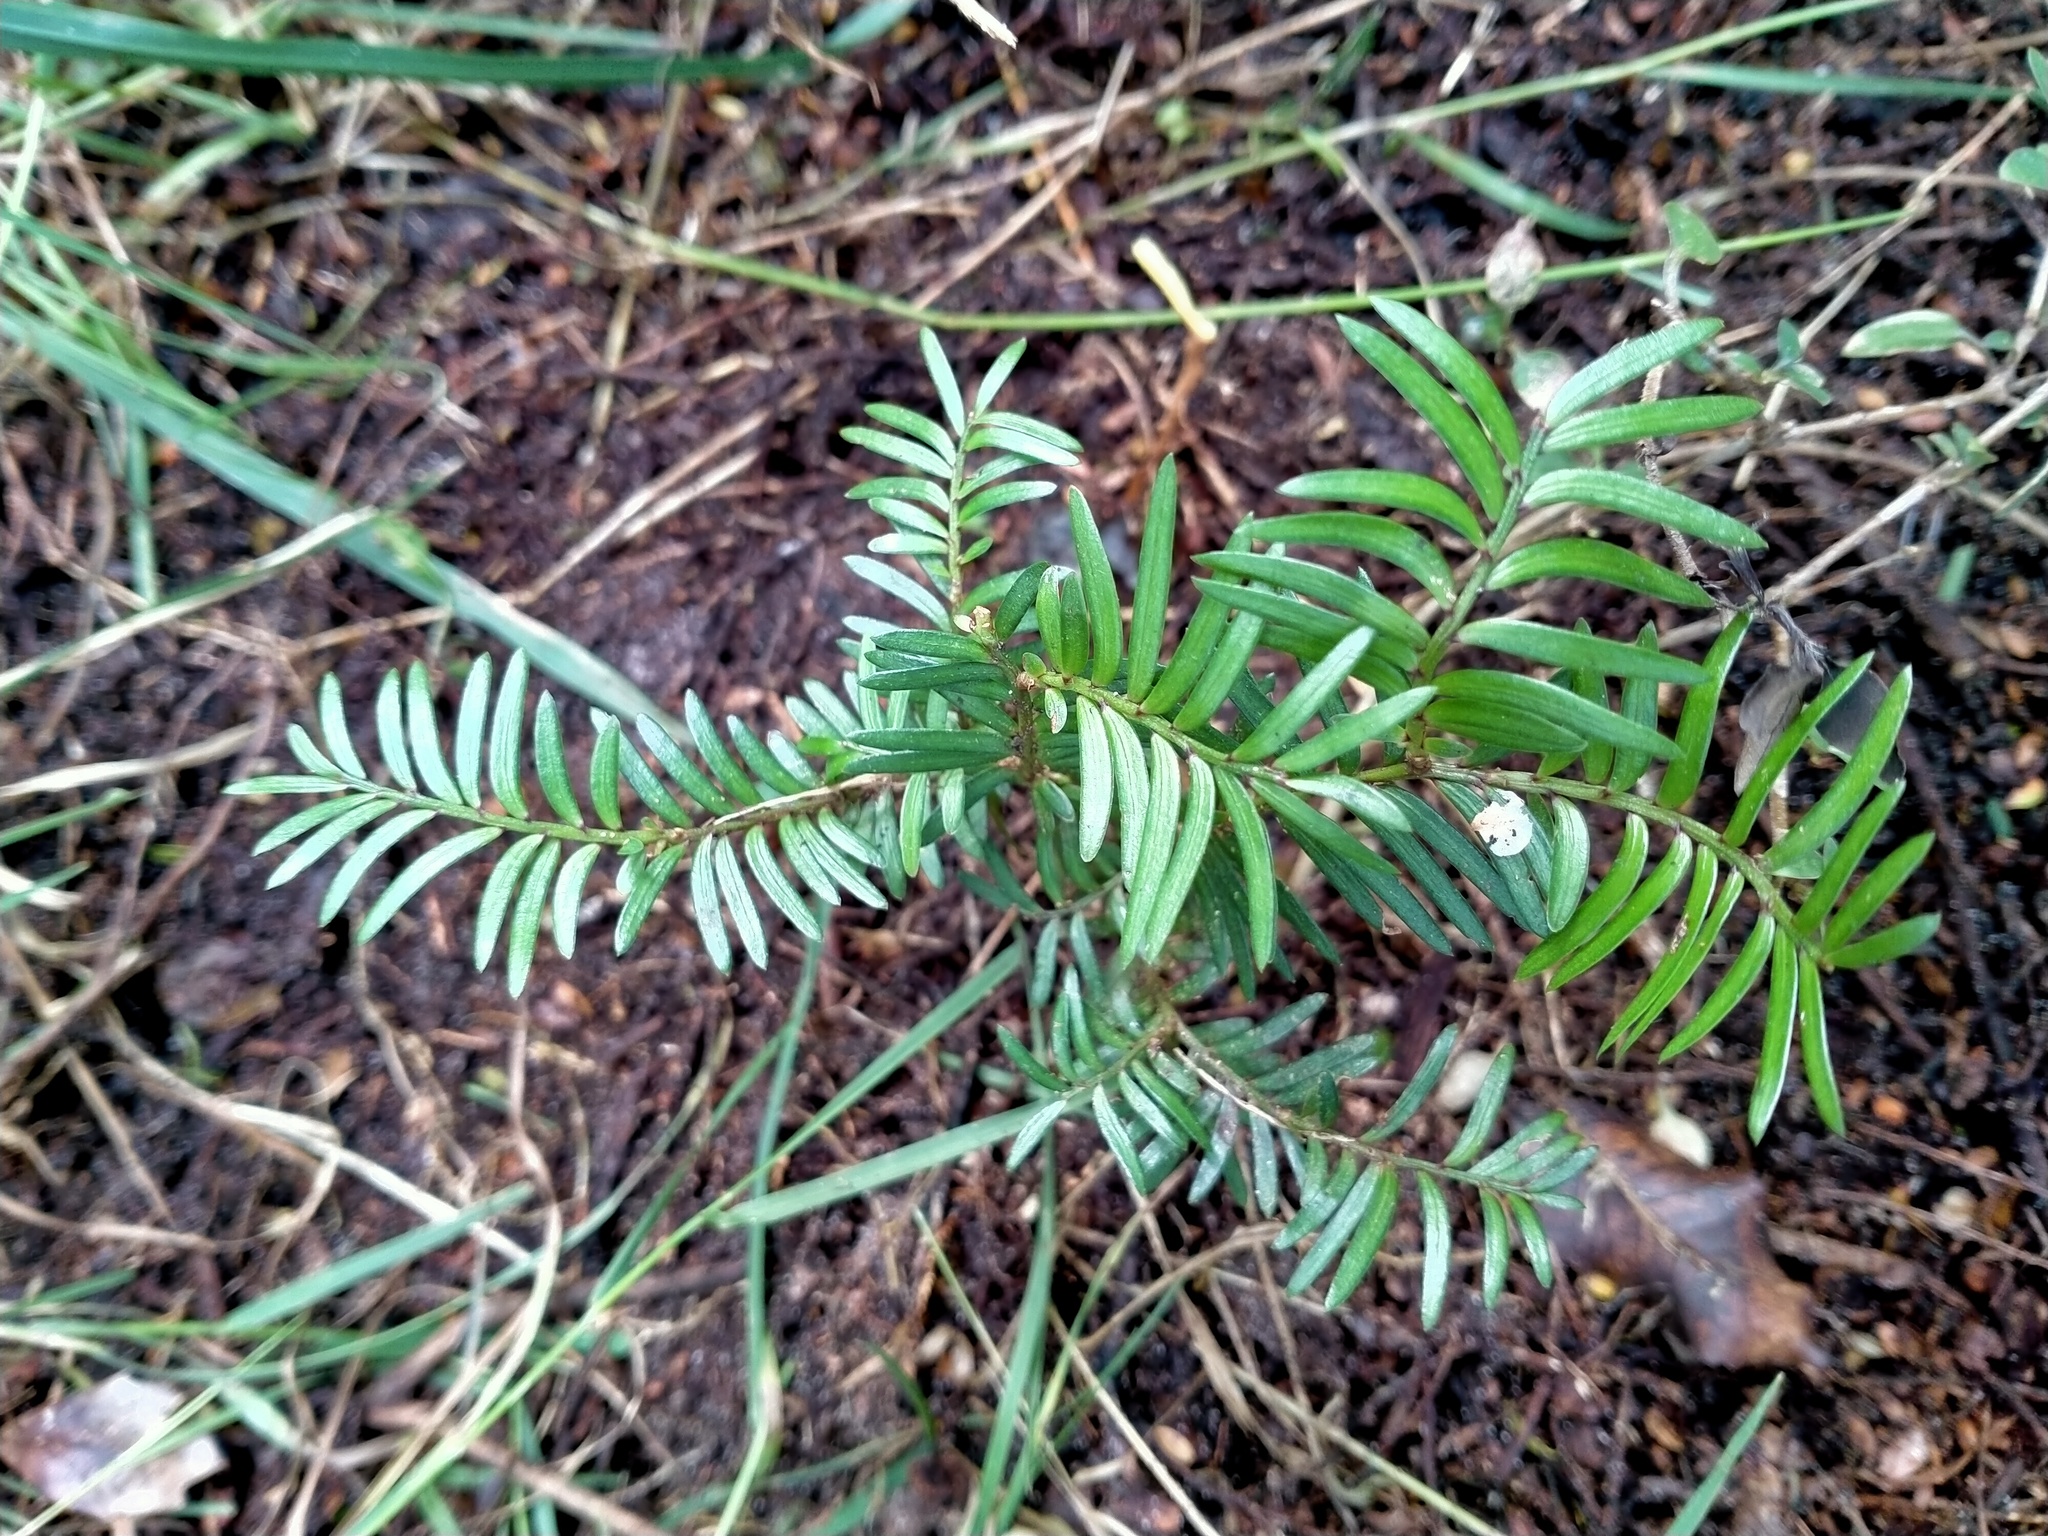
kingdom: Plantae
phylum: Tracheophyta
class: Pinopsida
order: Pinales
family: Podocarpaceae
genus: Prumnopitys
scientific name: Prumnopitys ferruginea
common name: Brown pine
